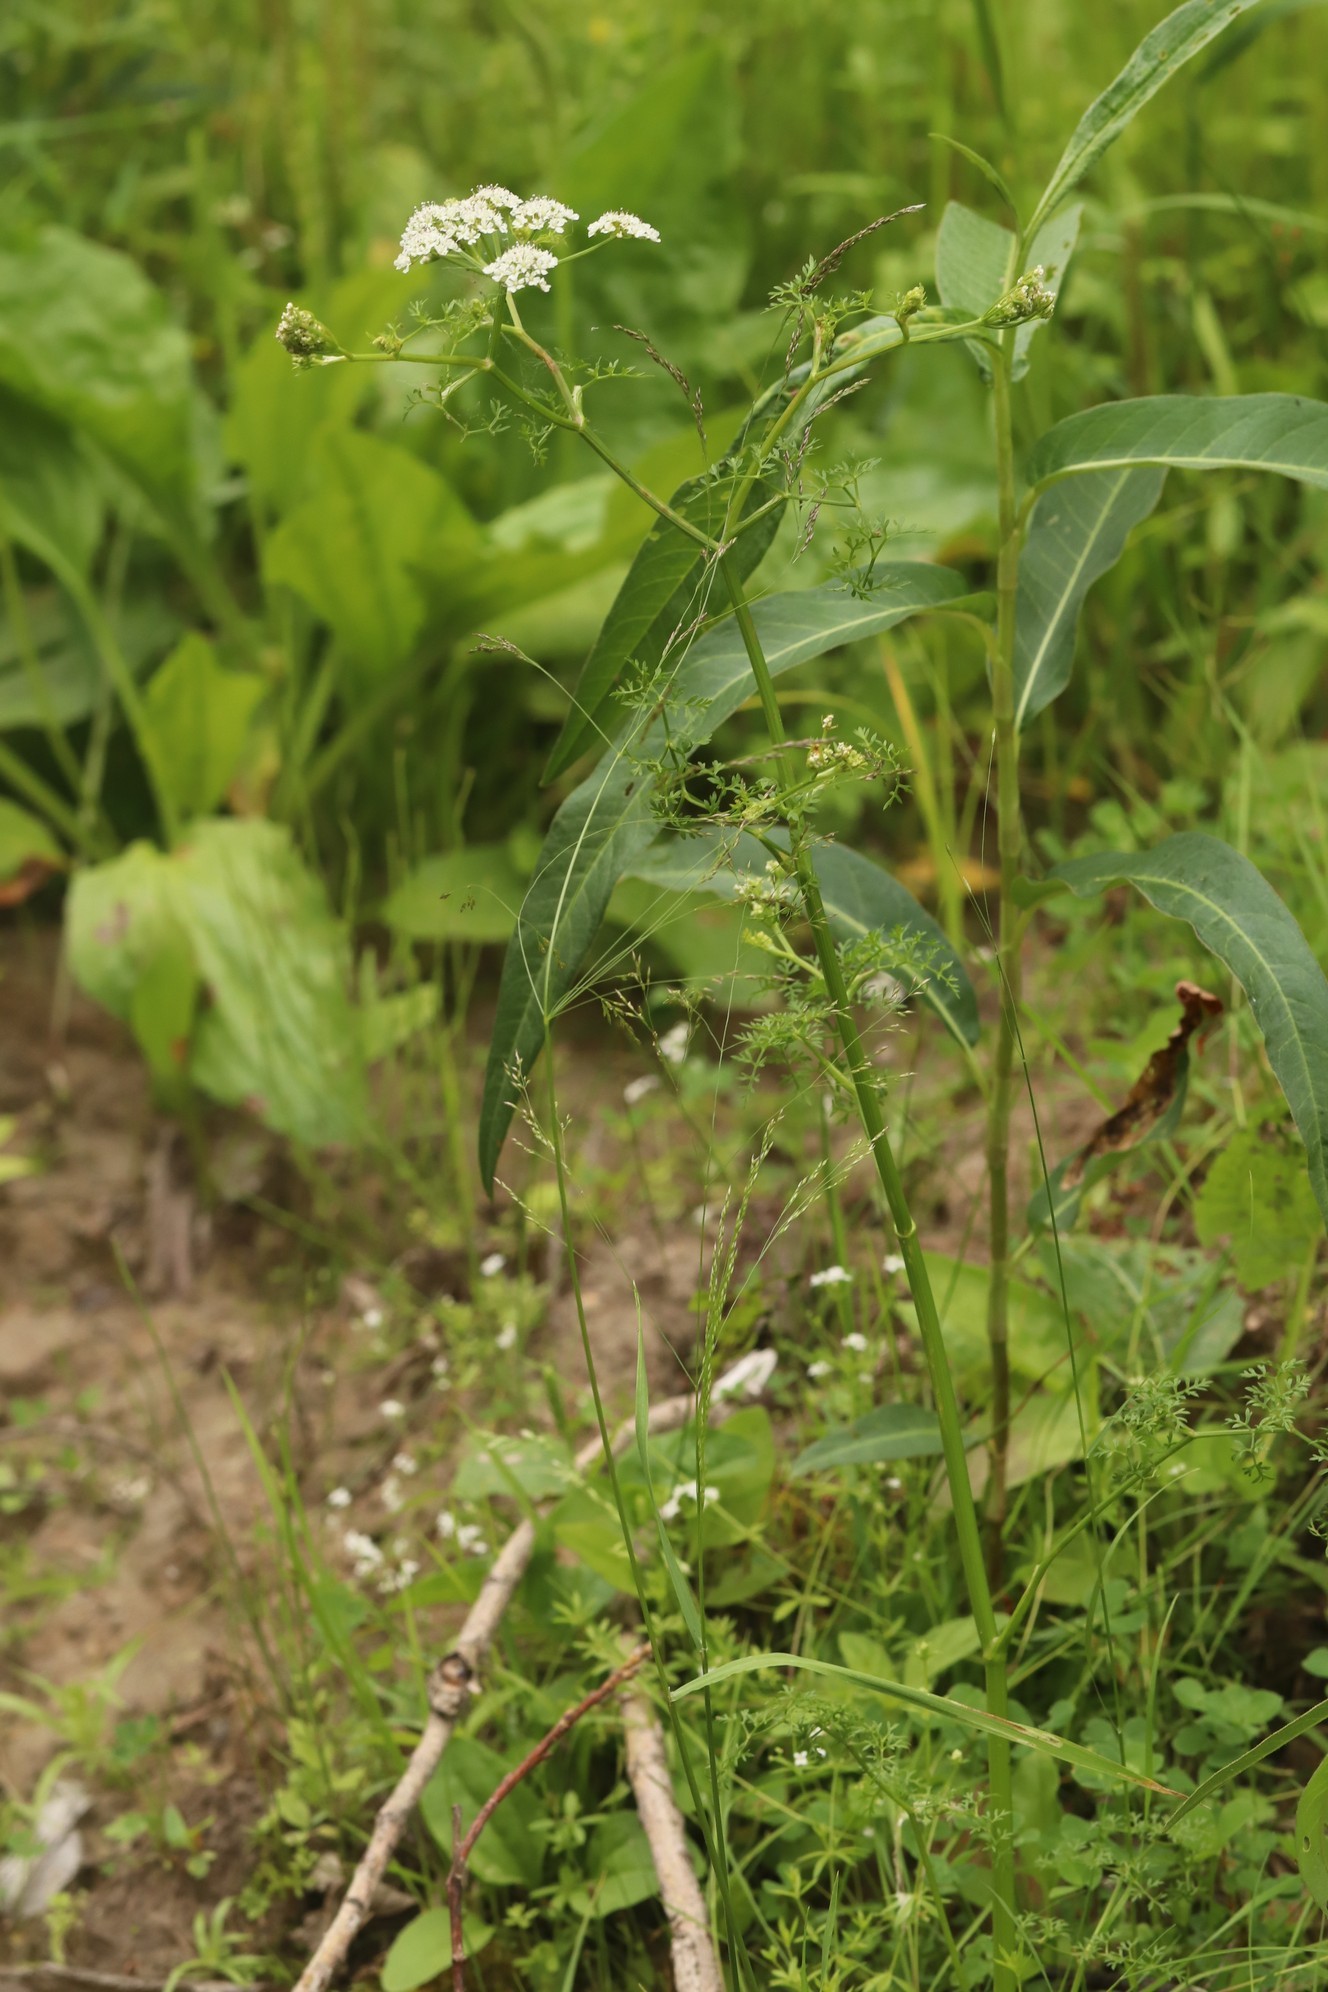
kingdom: Plantae
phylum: Tracheophyta
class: Magnoliopsida
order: Apiales
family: Apiaceae
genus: Oenanthe
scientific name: Oenanthe aquatica
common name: Fine-leaved water-dropwort
